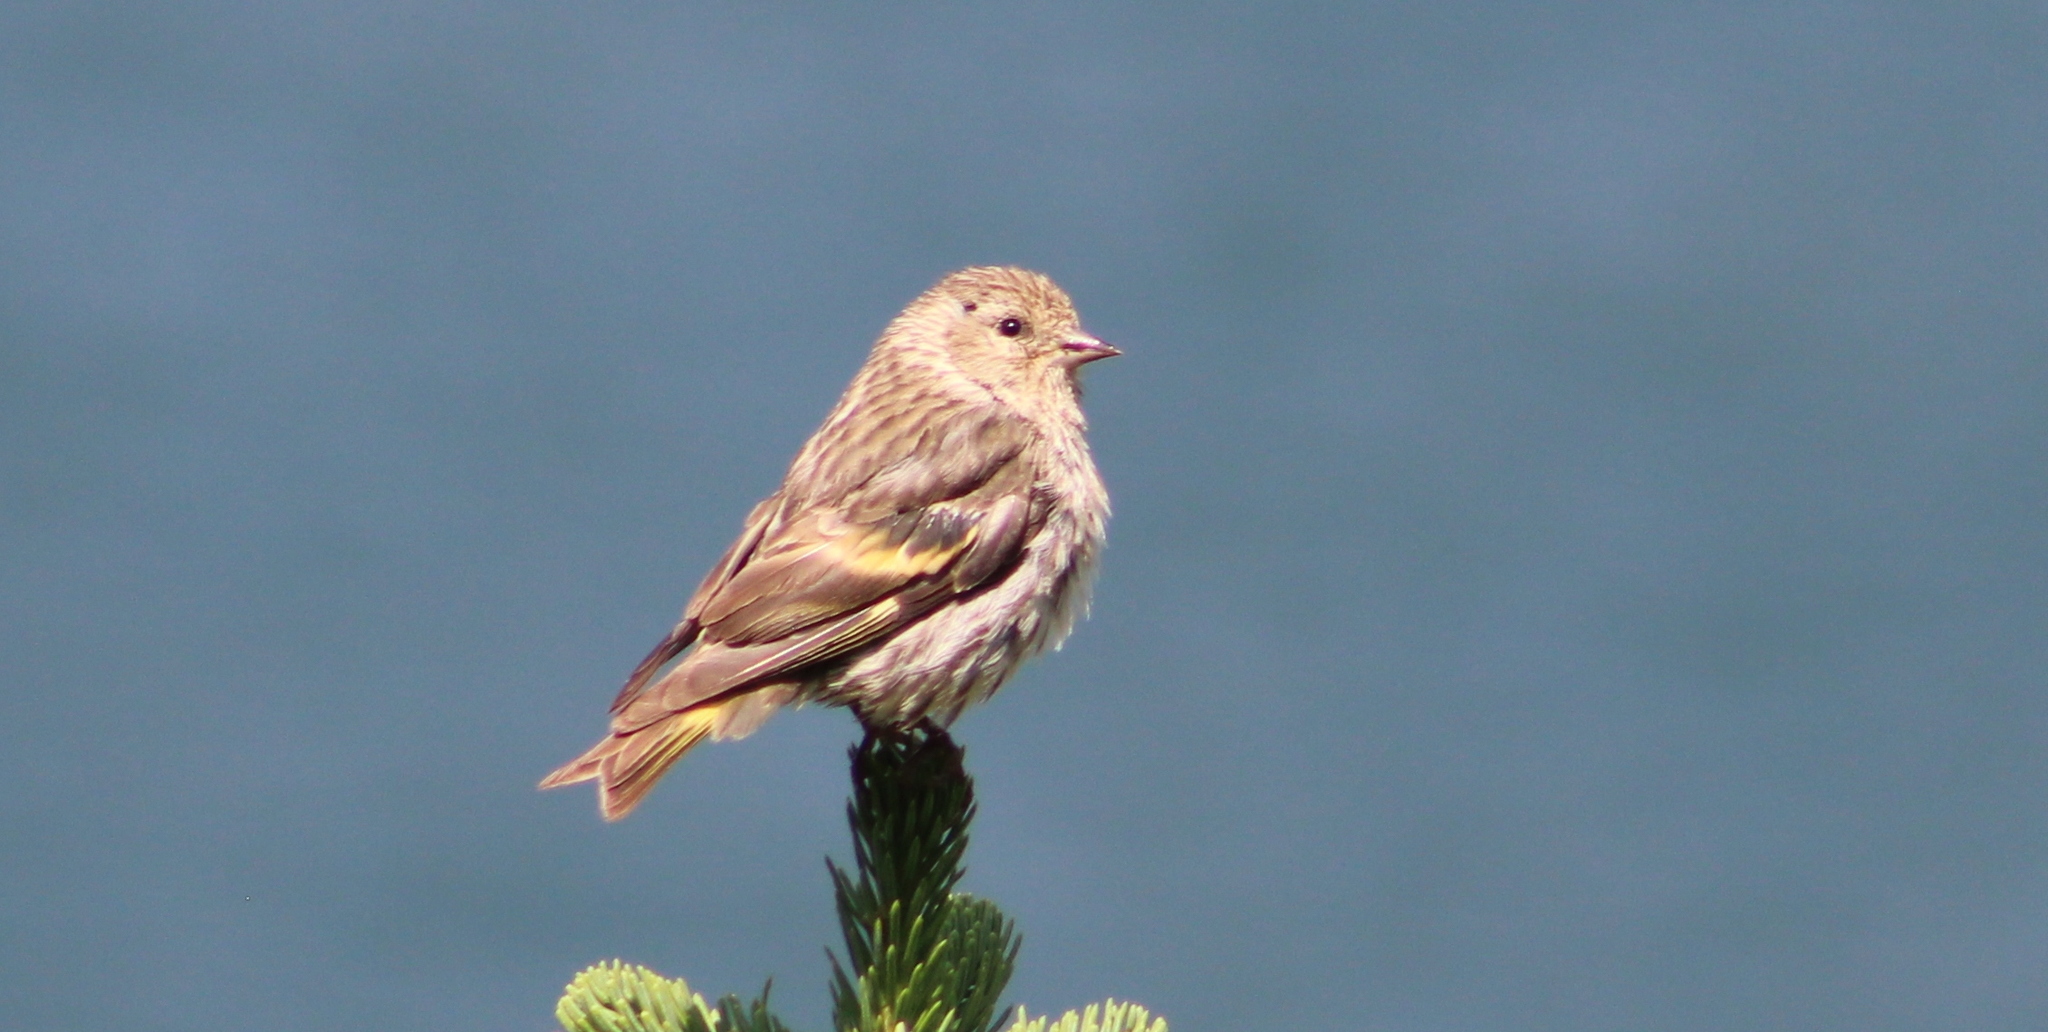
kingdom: Animalia
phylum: Chordata
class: Aves
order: Passeriformes
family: Fringillidae
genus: Spinus
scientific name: Spinus pinus
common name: Pine siskin
